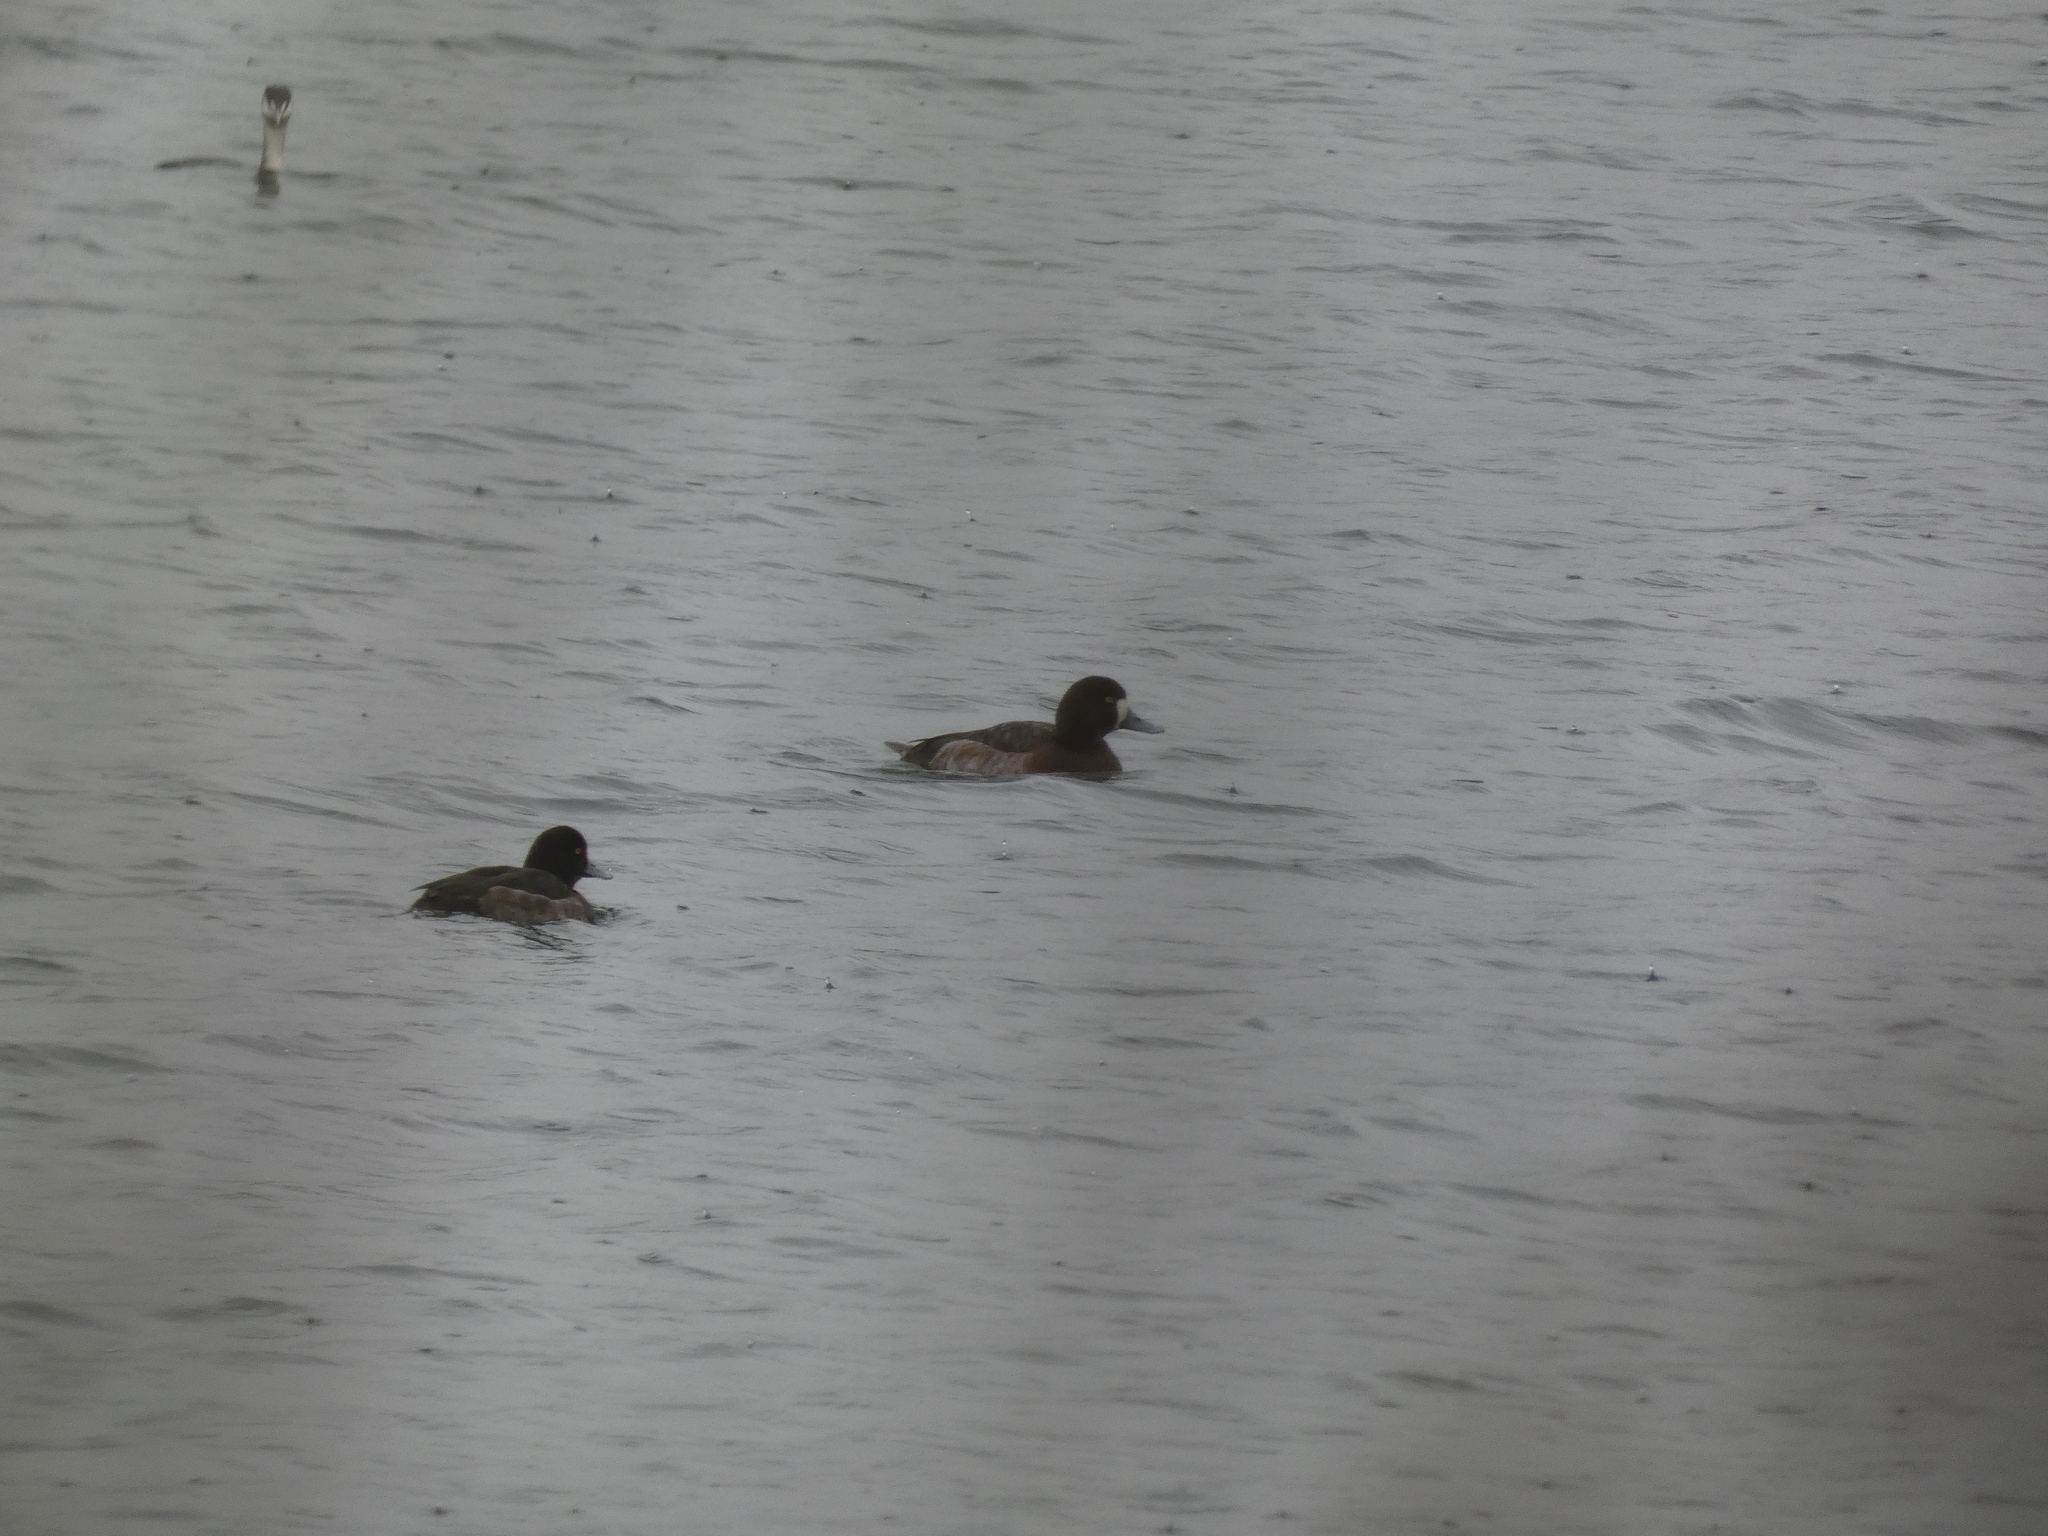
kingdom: Animalia
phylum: Chordata
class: Aves
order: Anseriformes
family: Anatidae
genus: Aythya
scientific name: Aythya marila
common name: Greater scaup
